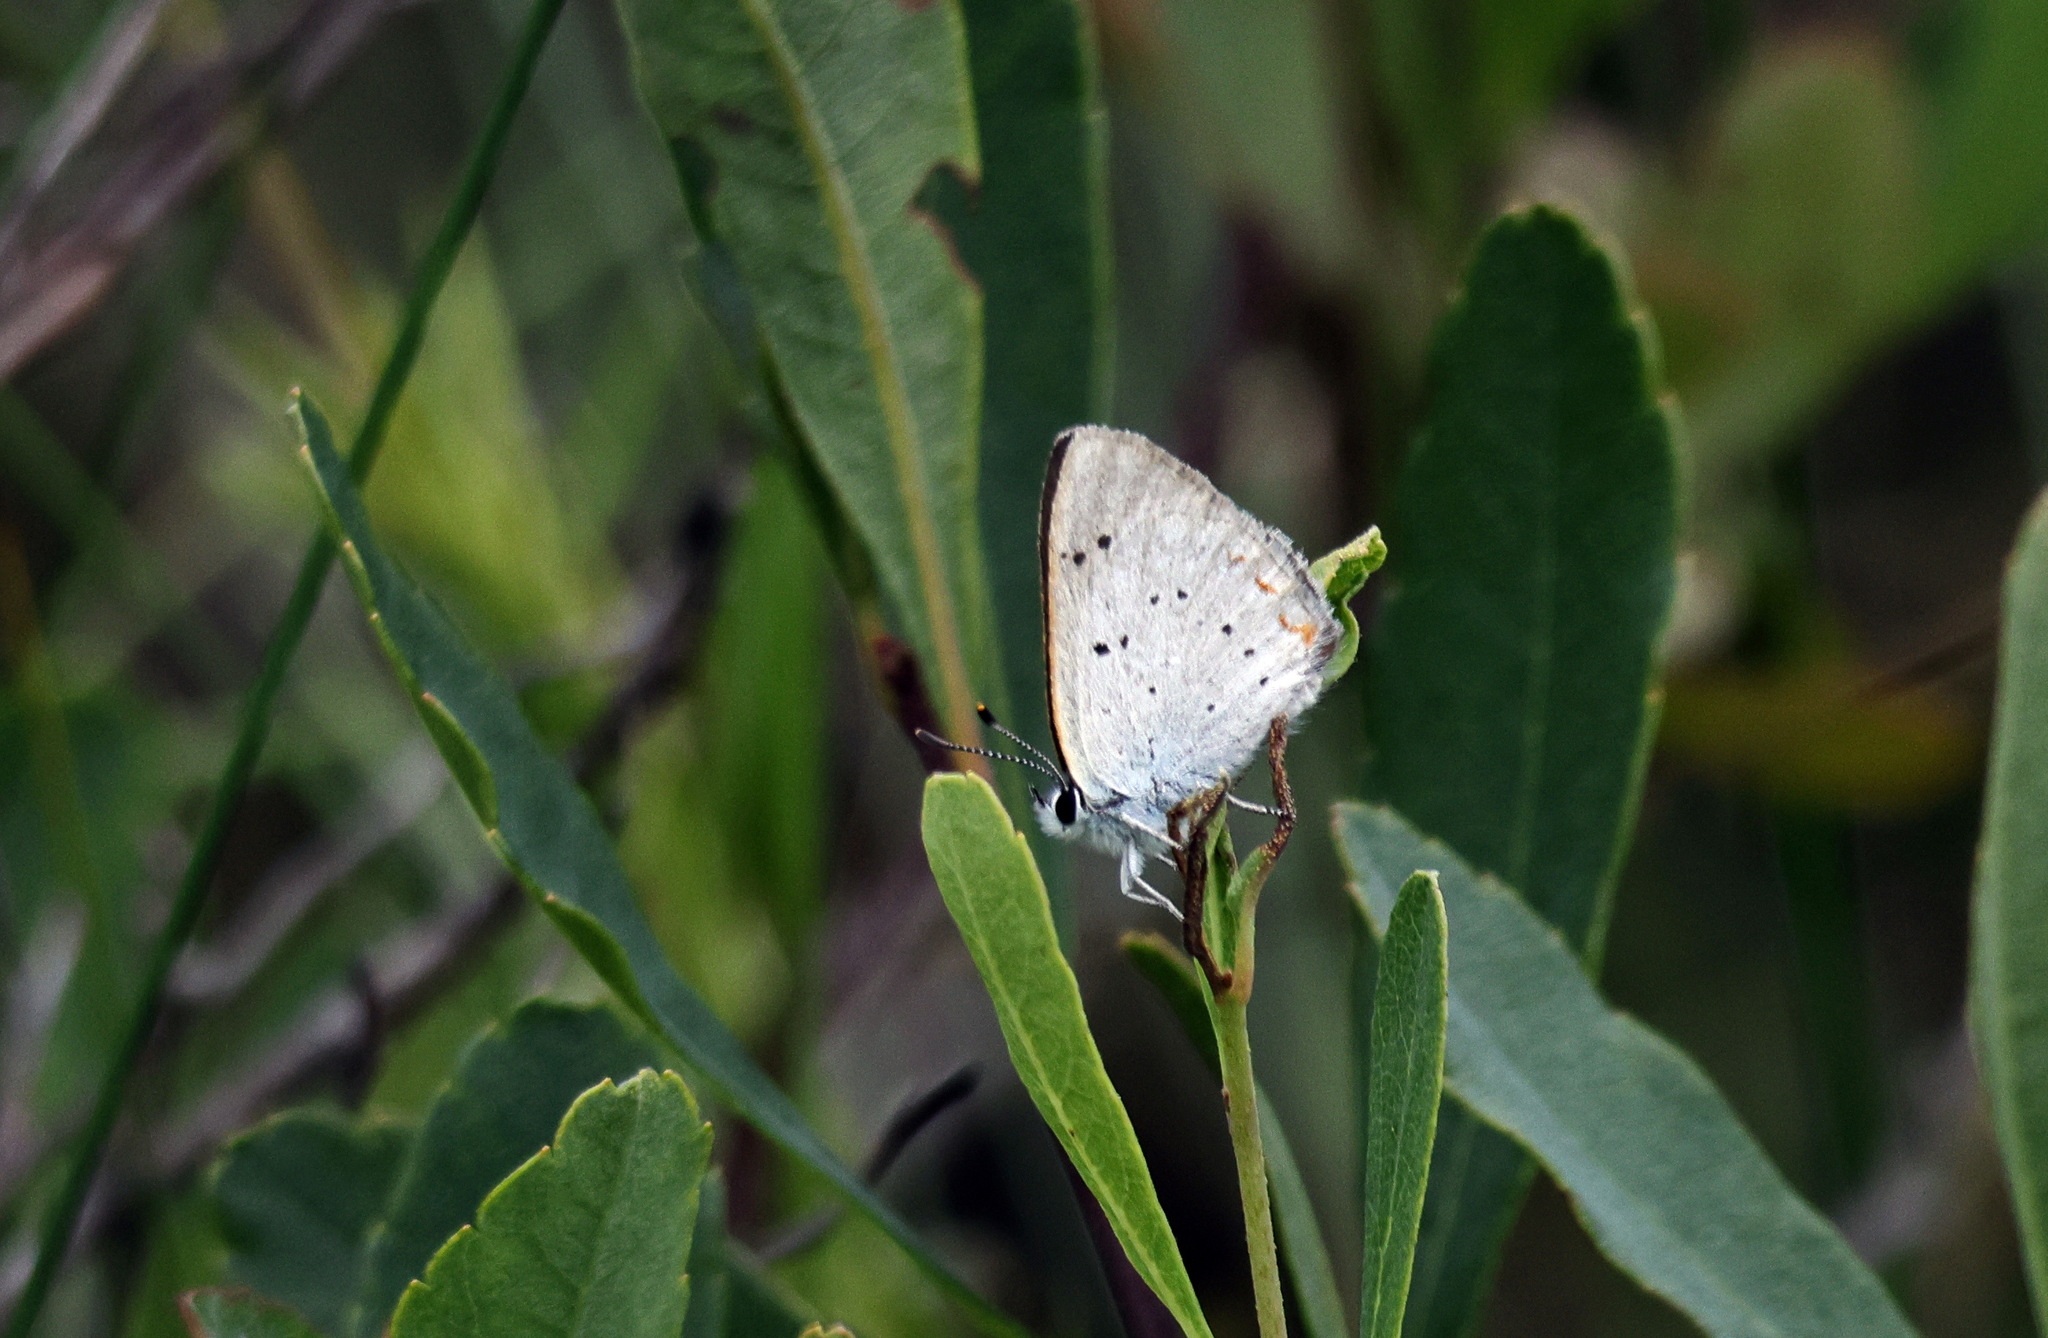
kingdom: Animalia
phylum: Arthropoda
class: Insecta
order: Lepidoptera
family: Lycaenidae
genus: Tharsalea
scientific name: Tharsalea epixanthe
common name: Bog copper
